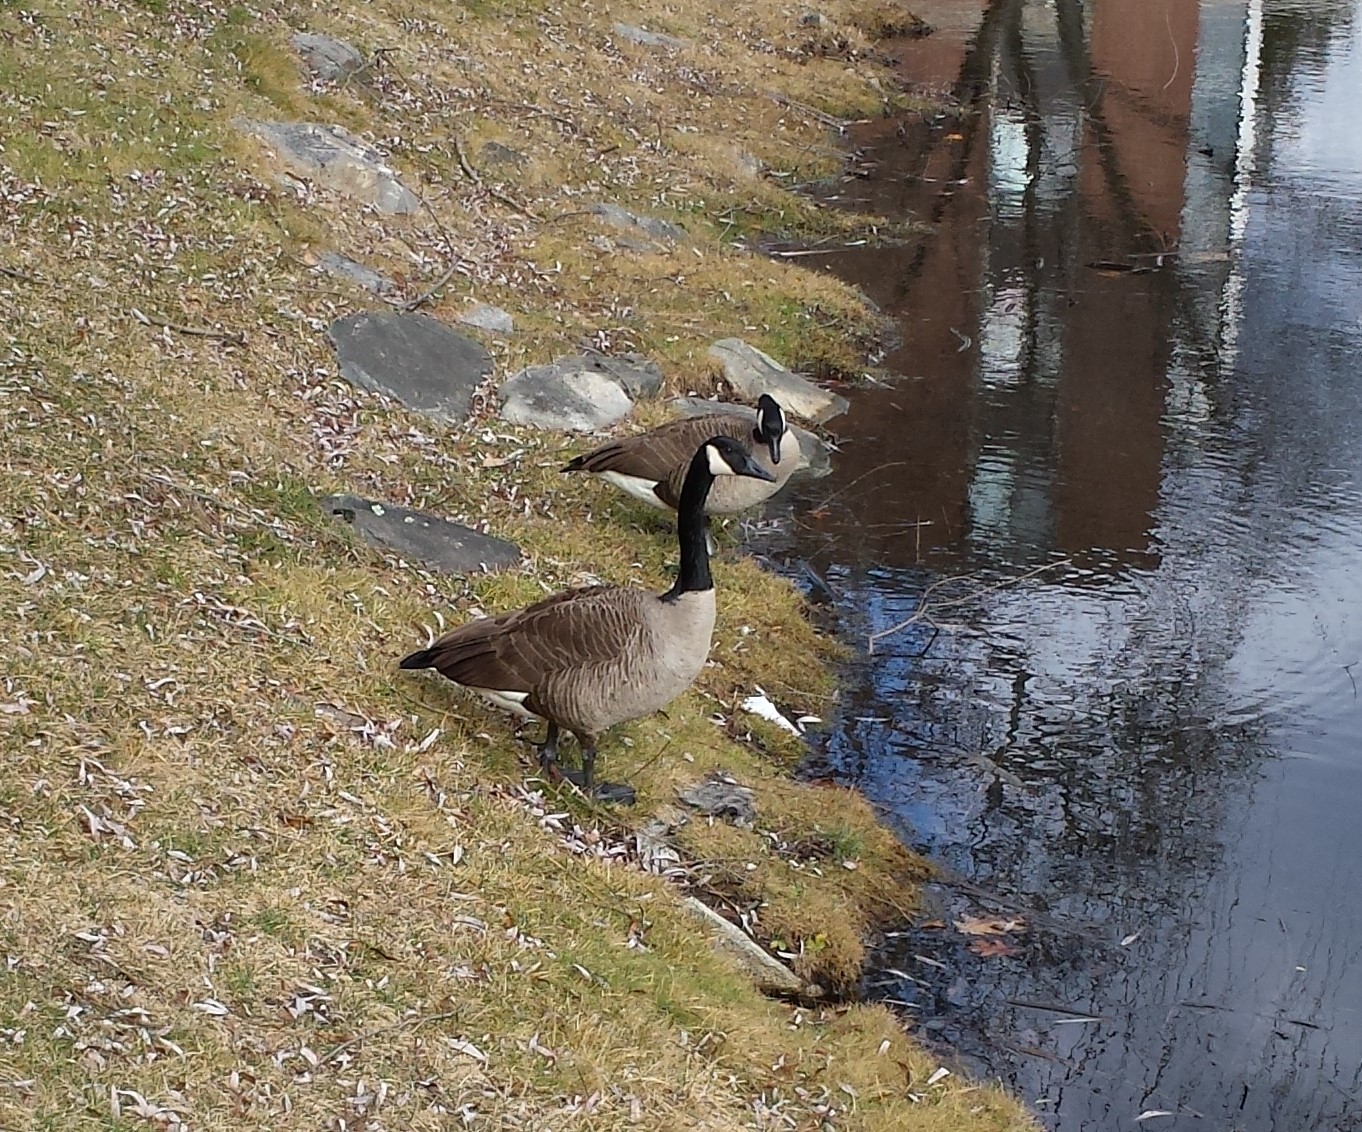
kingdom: Animalia
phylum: Chordata
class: Aves
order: Anseriformes
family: Anatidae
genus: Branta
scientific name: Branta canadensis
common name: Canada goose
